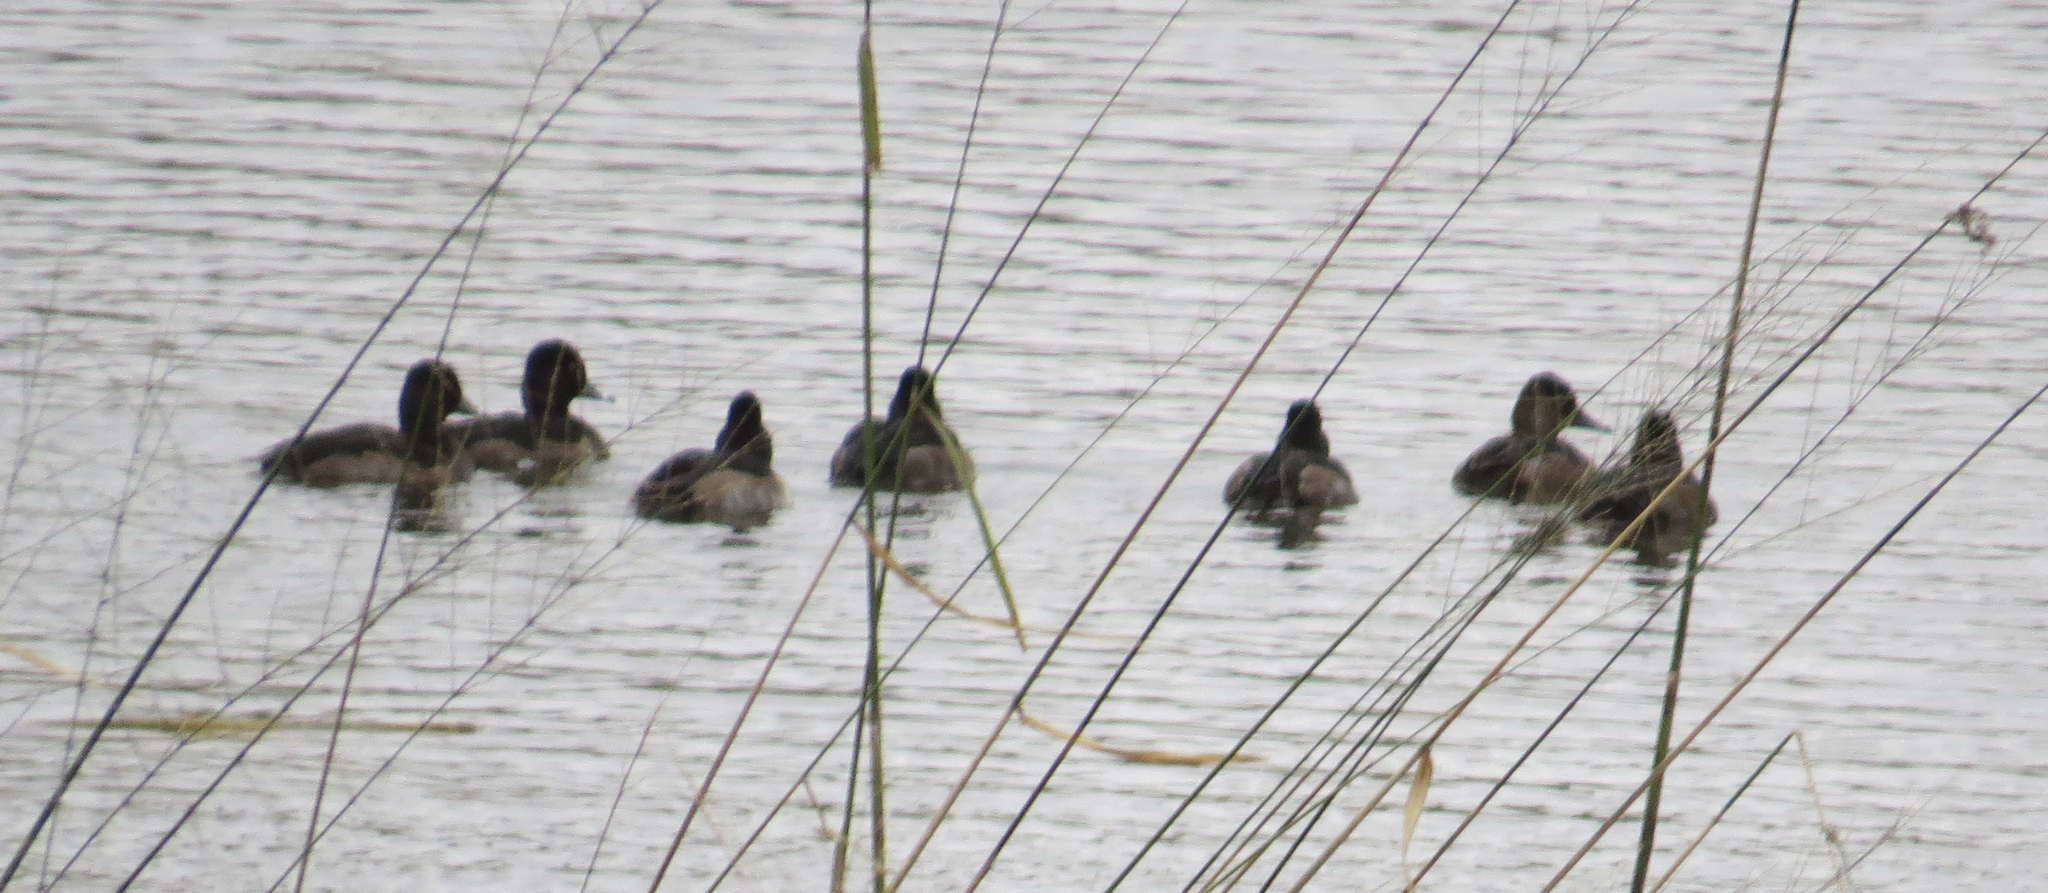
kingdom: Animalia
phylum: Chordata
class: Aves
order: Anseriformes
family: Anatidae
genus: Aythya
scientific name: Aythya collaris
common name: Ring-necked duck
